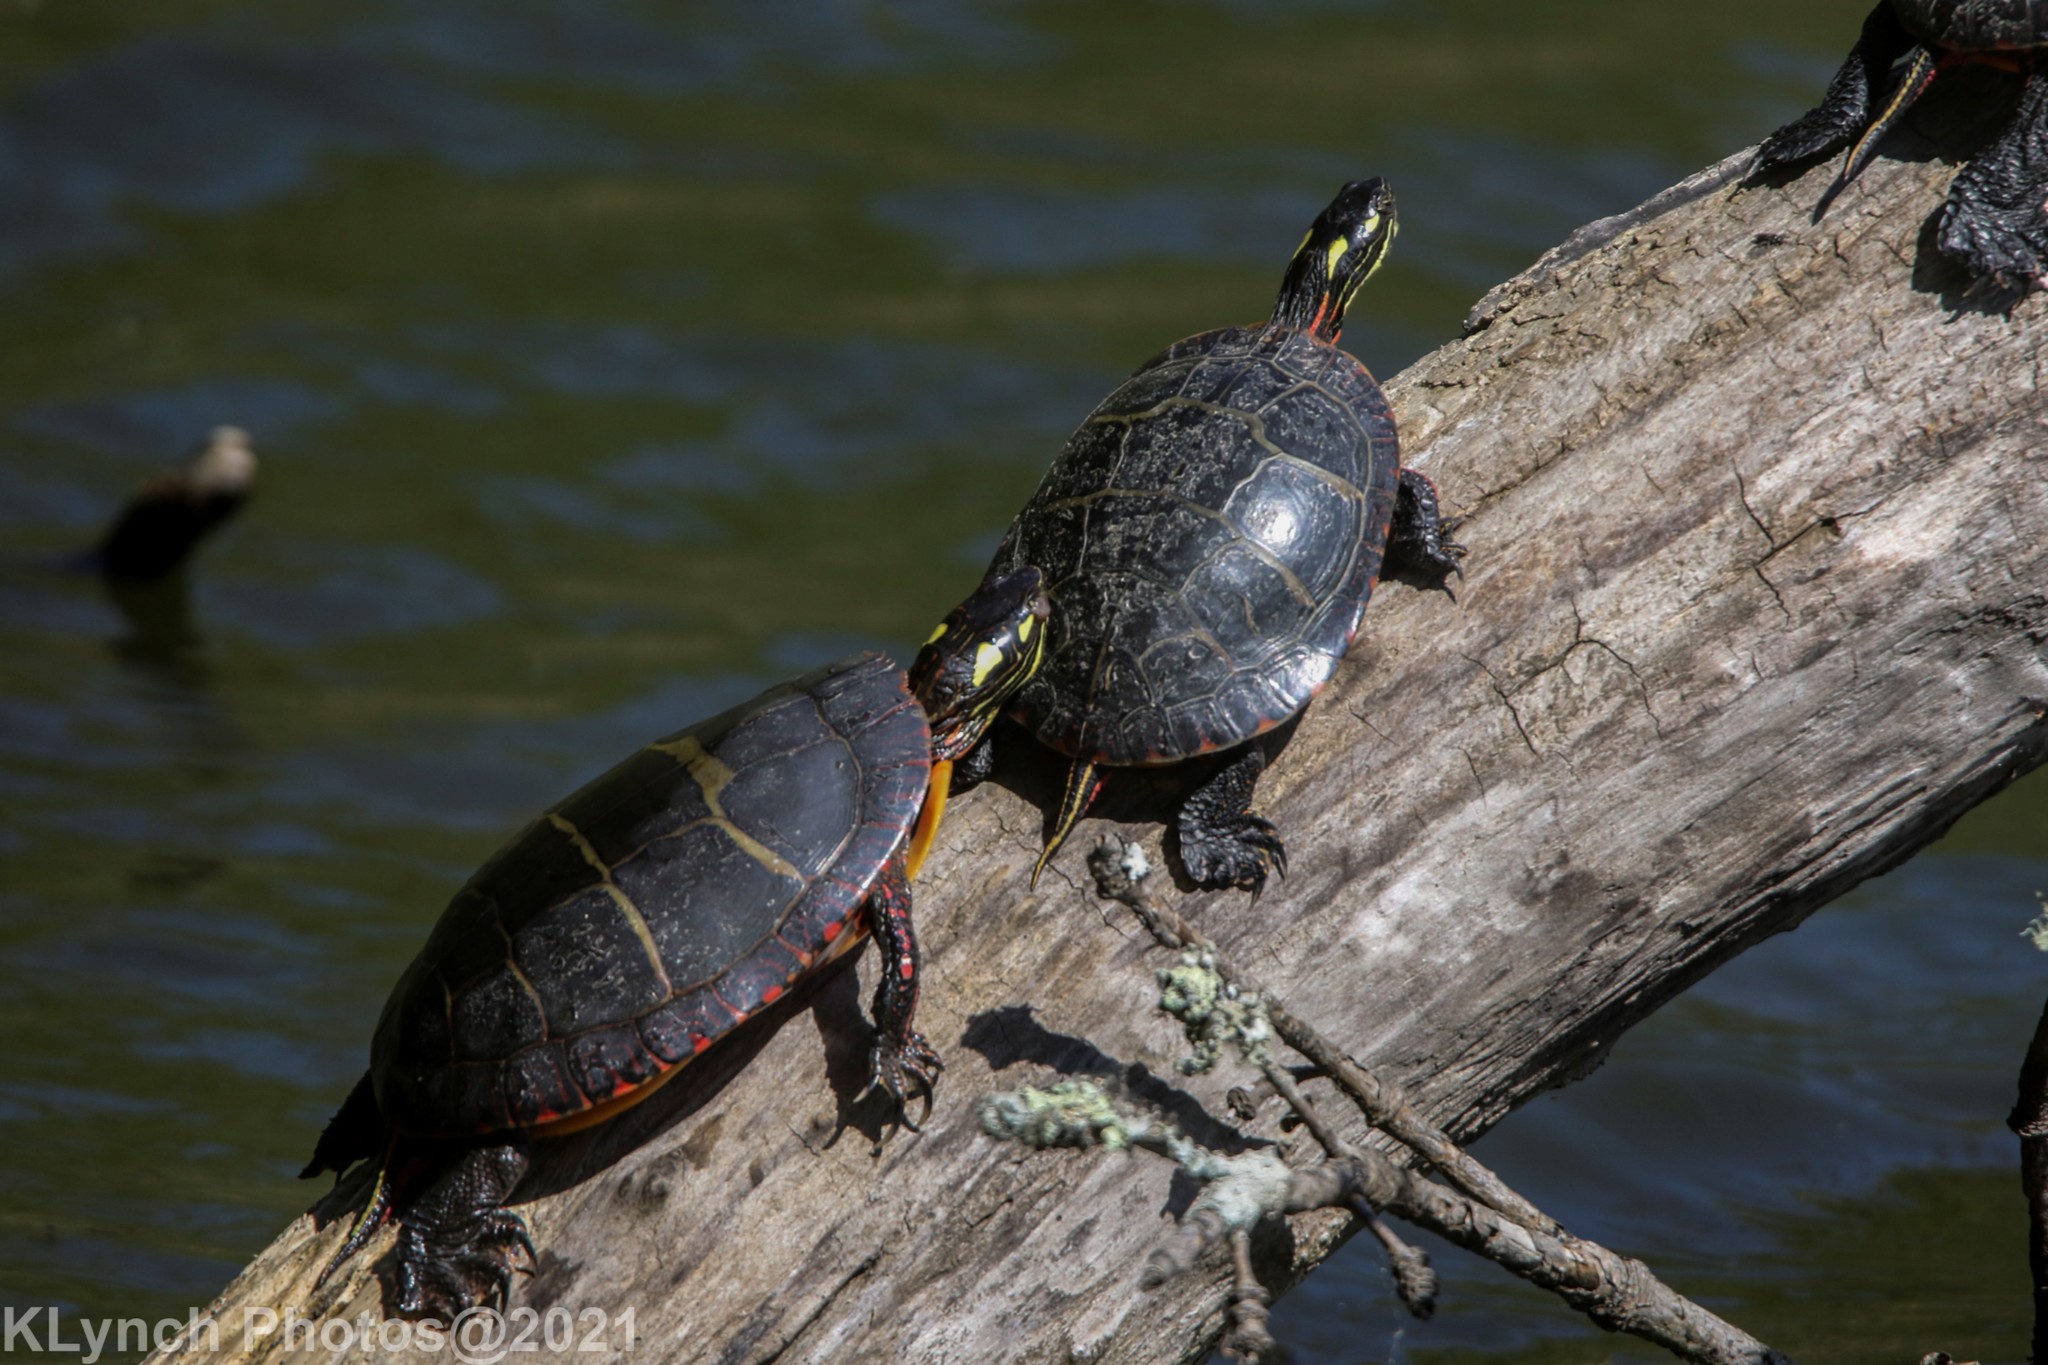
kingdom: Animalia
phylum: Chordata
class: Testudines
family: Emydidae
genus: Chrysemys
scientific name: Chrysemys picta
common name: Painted turtle
